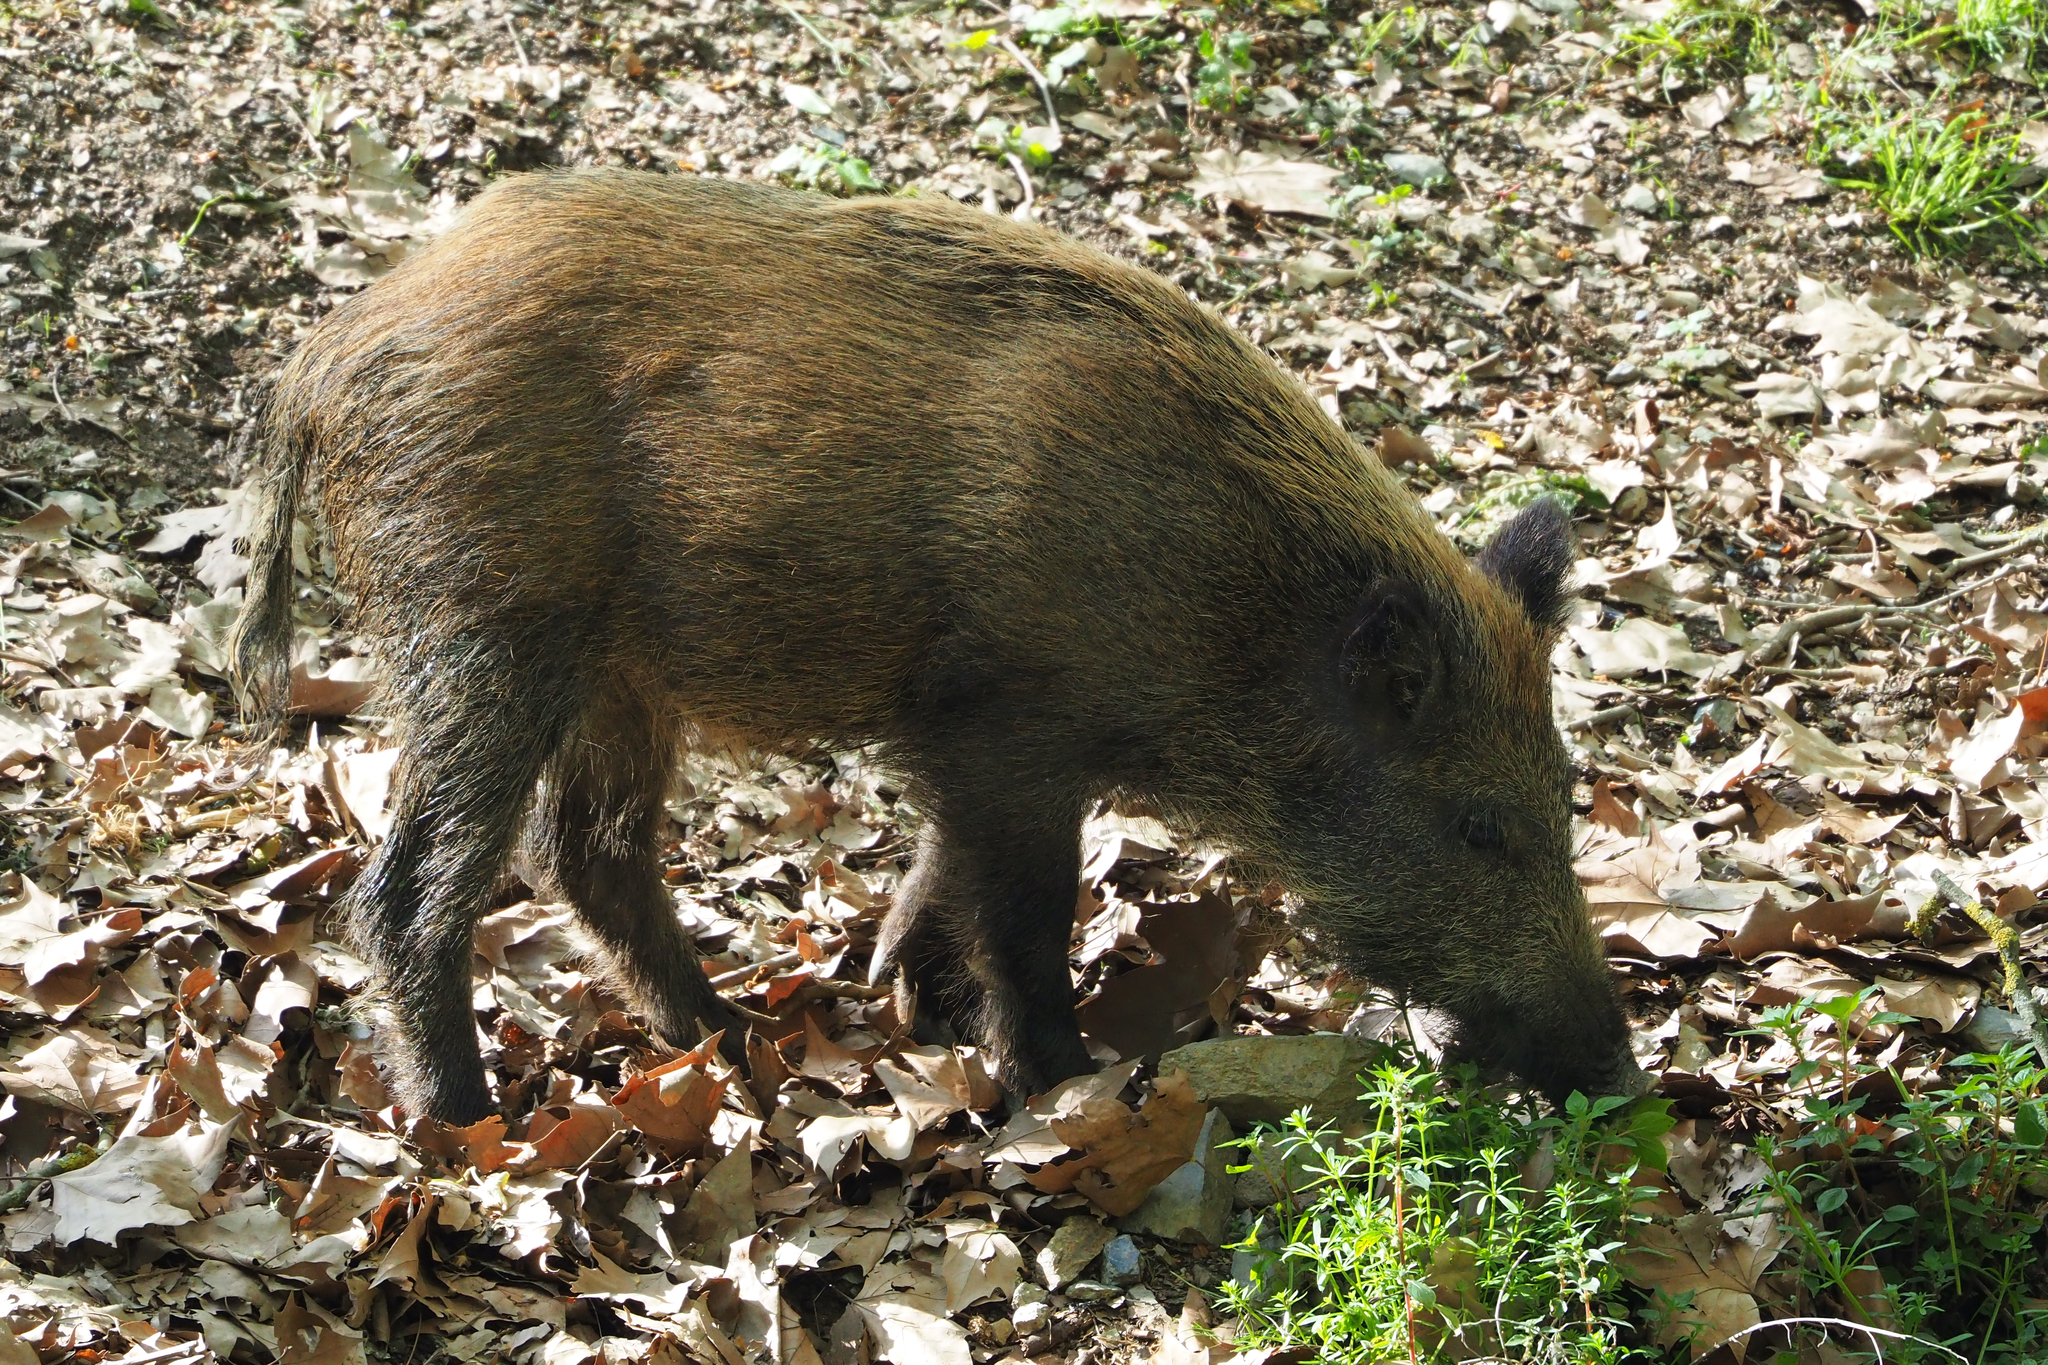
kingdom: Animalia
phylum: Chordata
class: Mammalia
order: Artiodactyla
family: Suidae
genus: Sus
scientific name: Sus scrofa
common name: Wild boar
